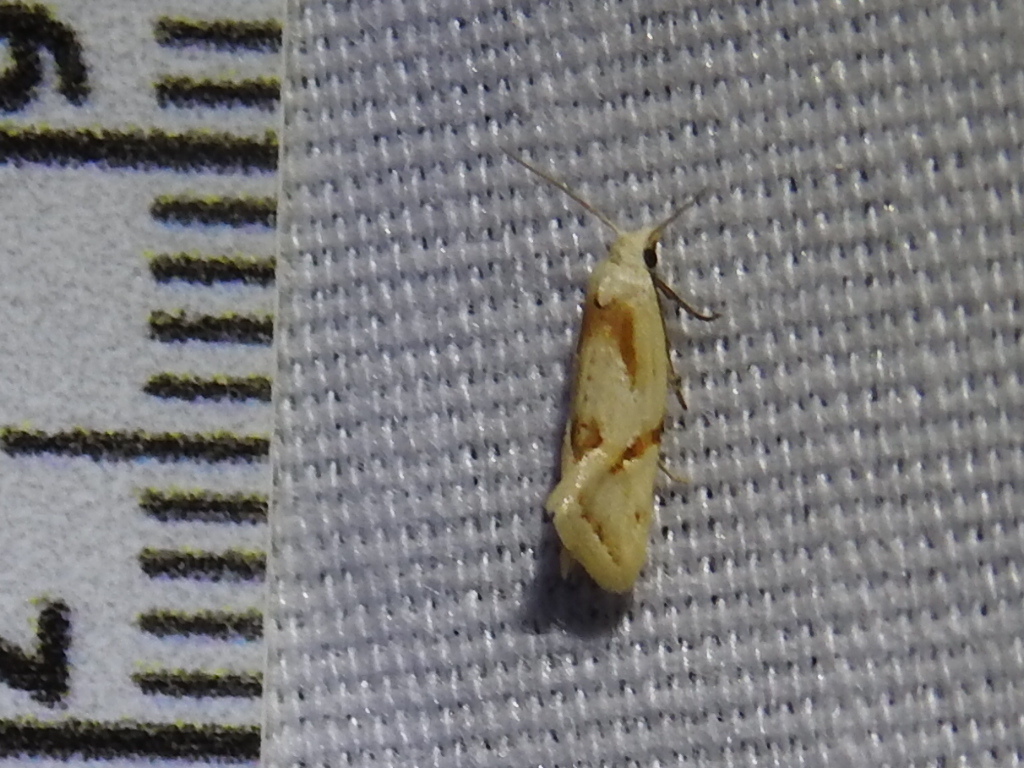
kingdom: Animalia
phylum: Arthropoda
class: Insecta
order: Lepidoptera
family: Tortricidae
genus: Aethes
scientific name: Aethes seriatana
